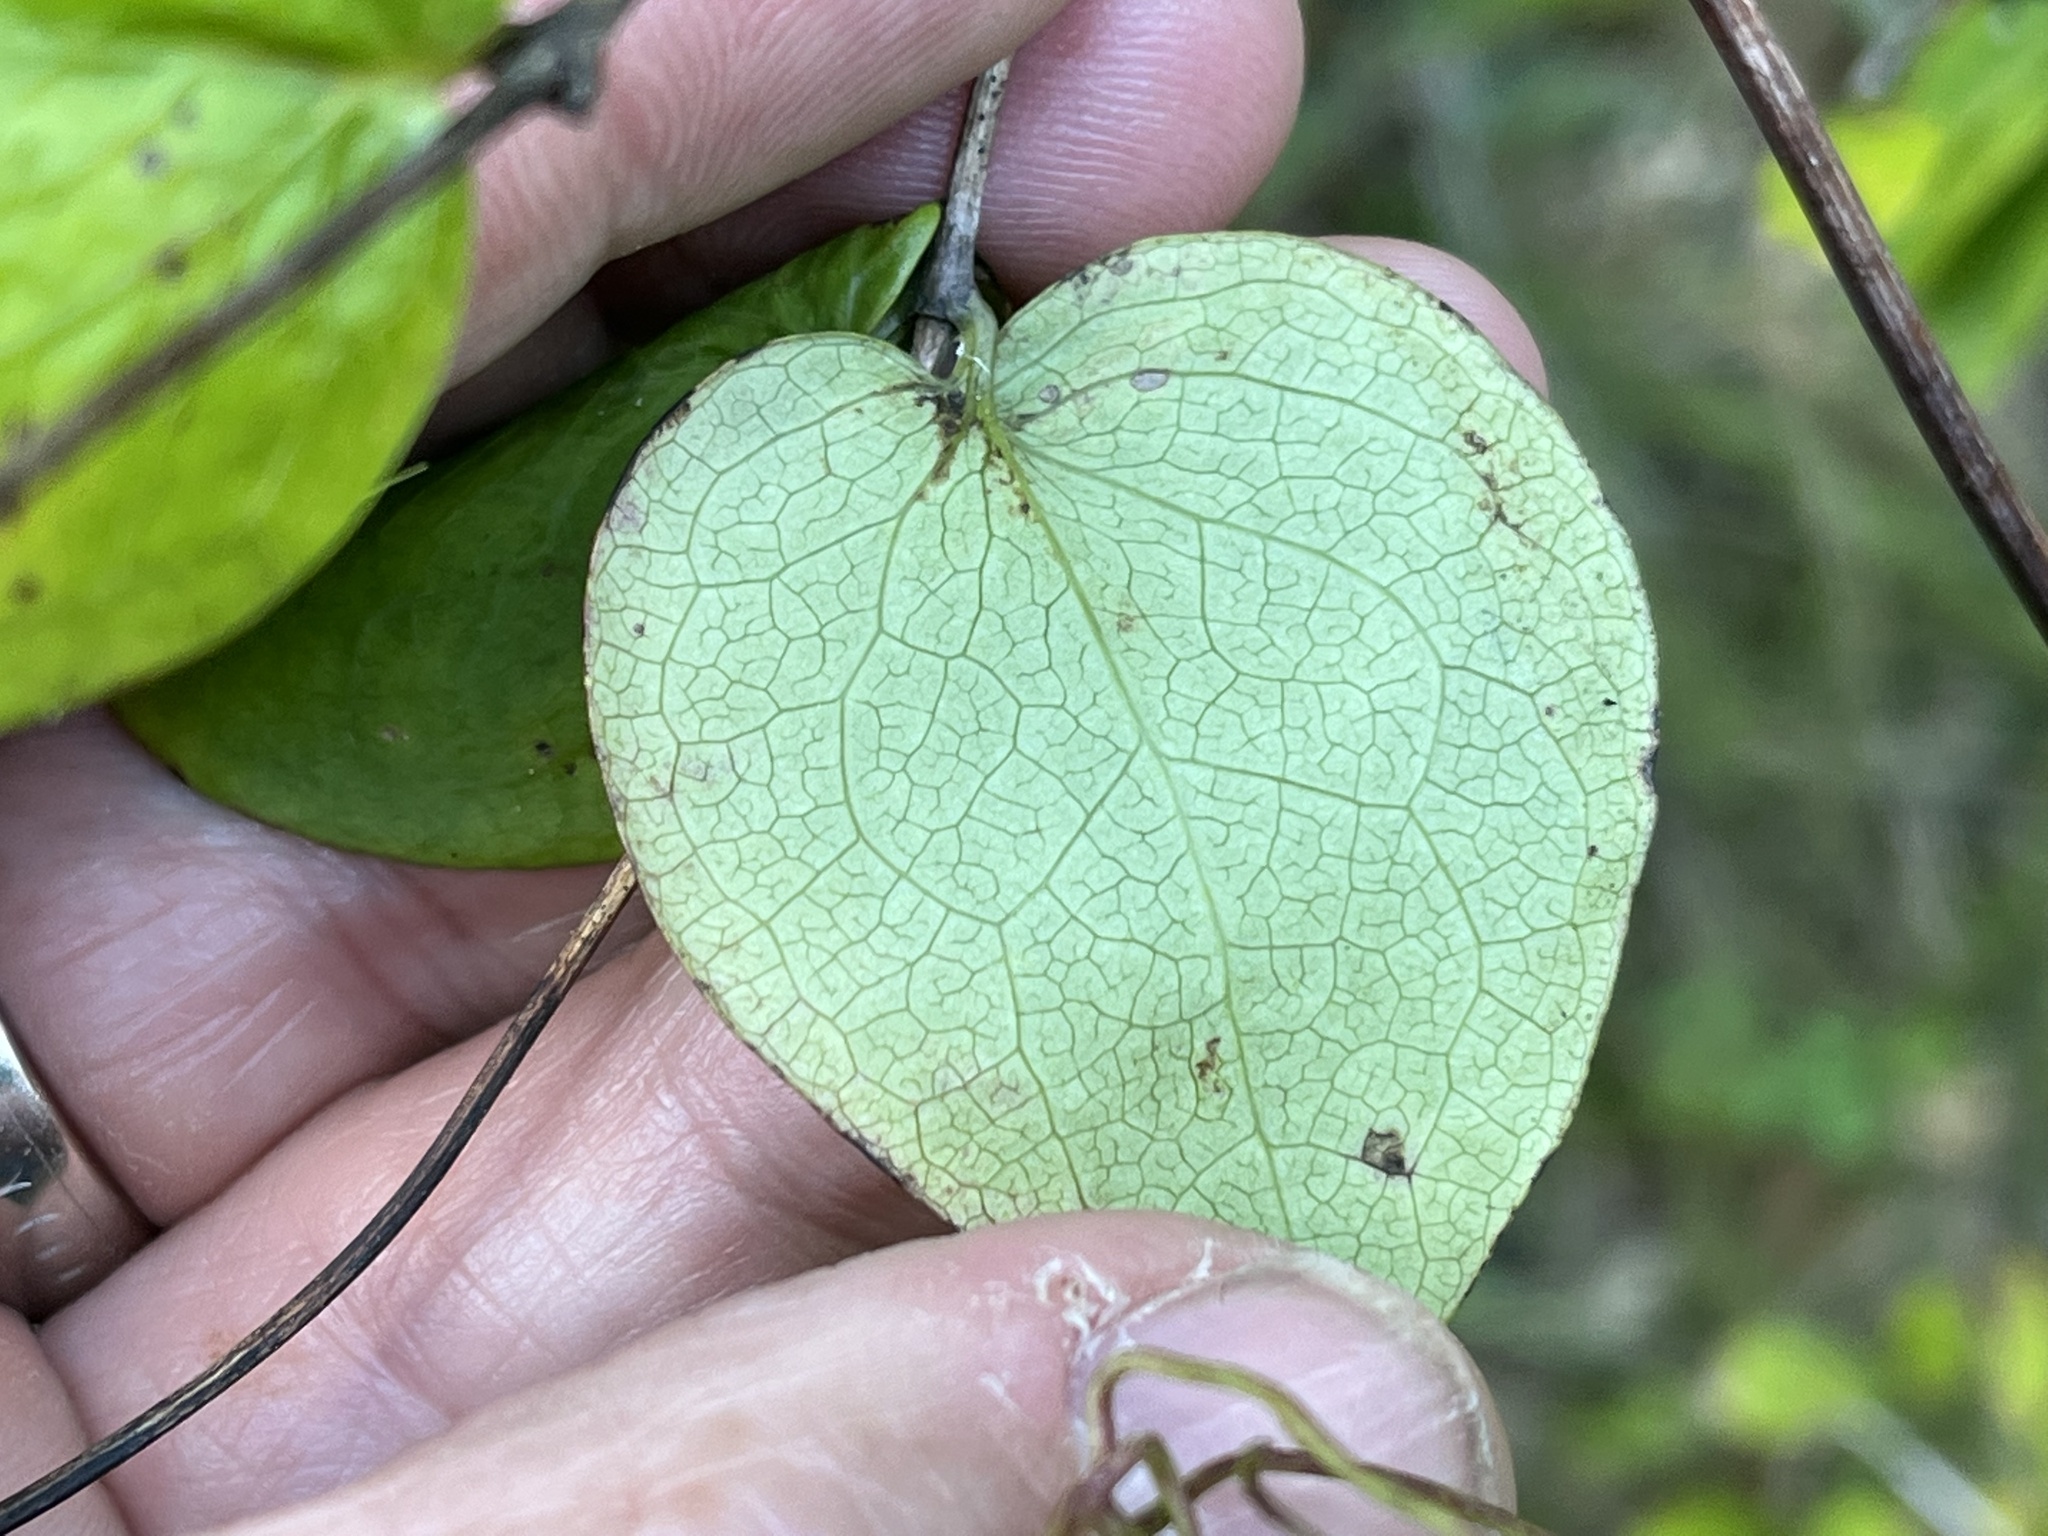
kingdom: Plantae
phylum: Tracheophyta
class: Magnoliopsida
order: Ranunculales
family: Ranunculaceae
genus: Clematis
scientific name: Clematis glaucophylla
